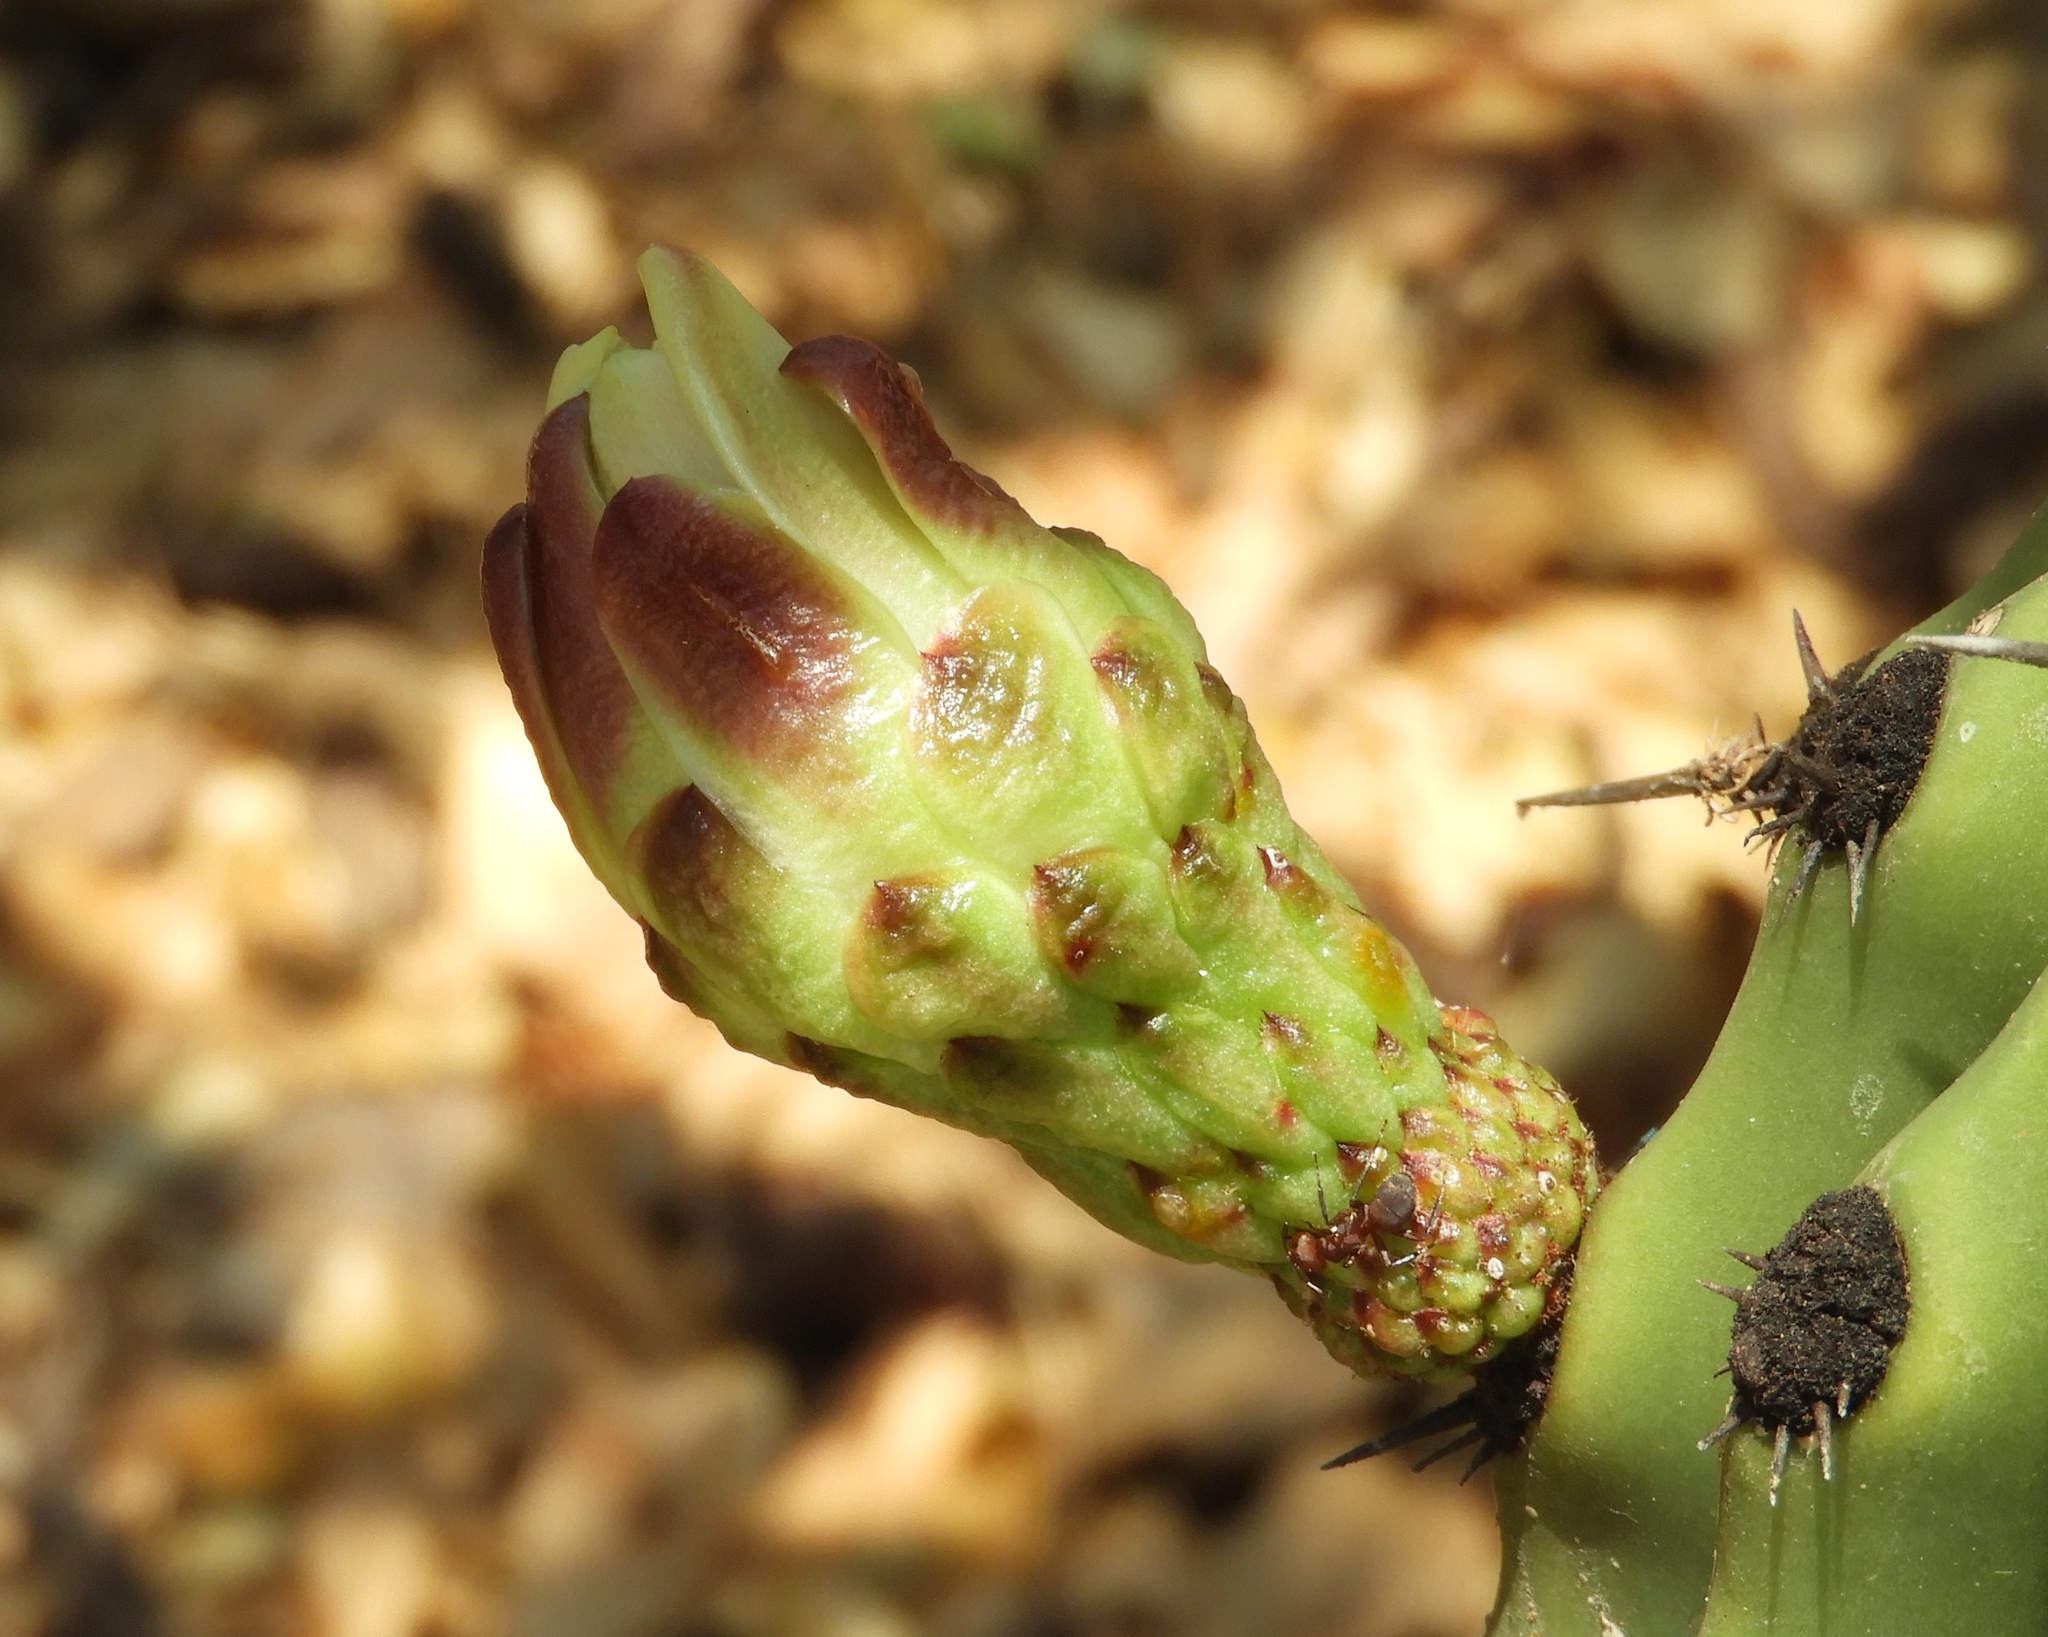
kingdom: Plantae
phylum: Tracheophyta
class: Magnoliopsida
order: Caryophyllales
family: Cactaceae
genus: Stenocereus
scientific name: Stenocereus martinezii
